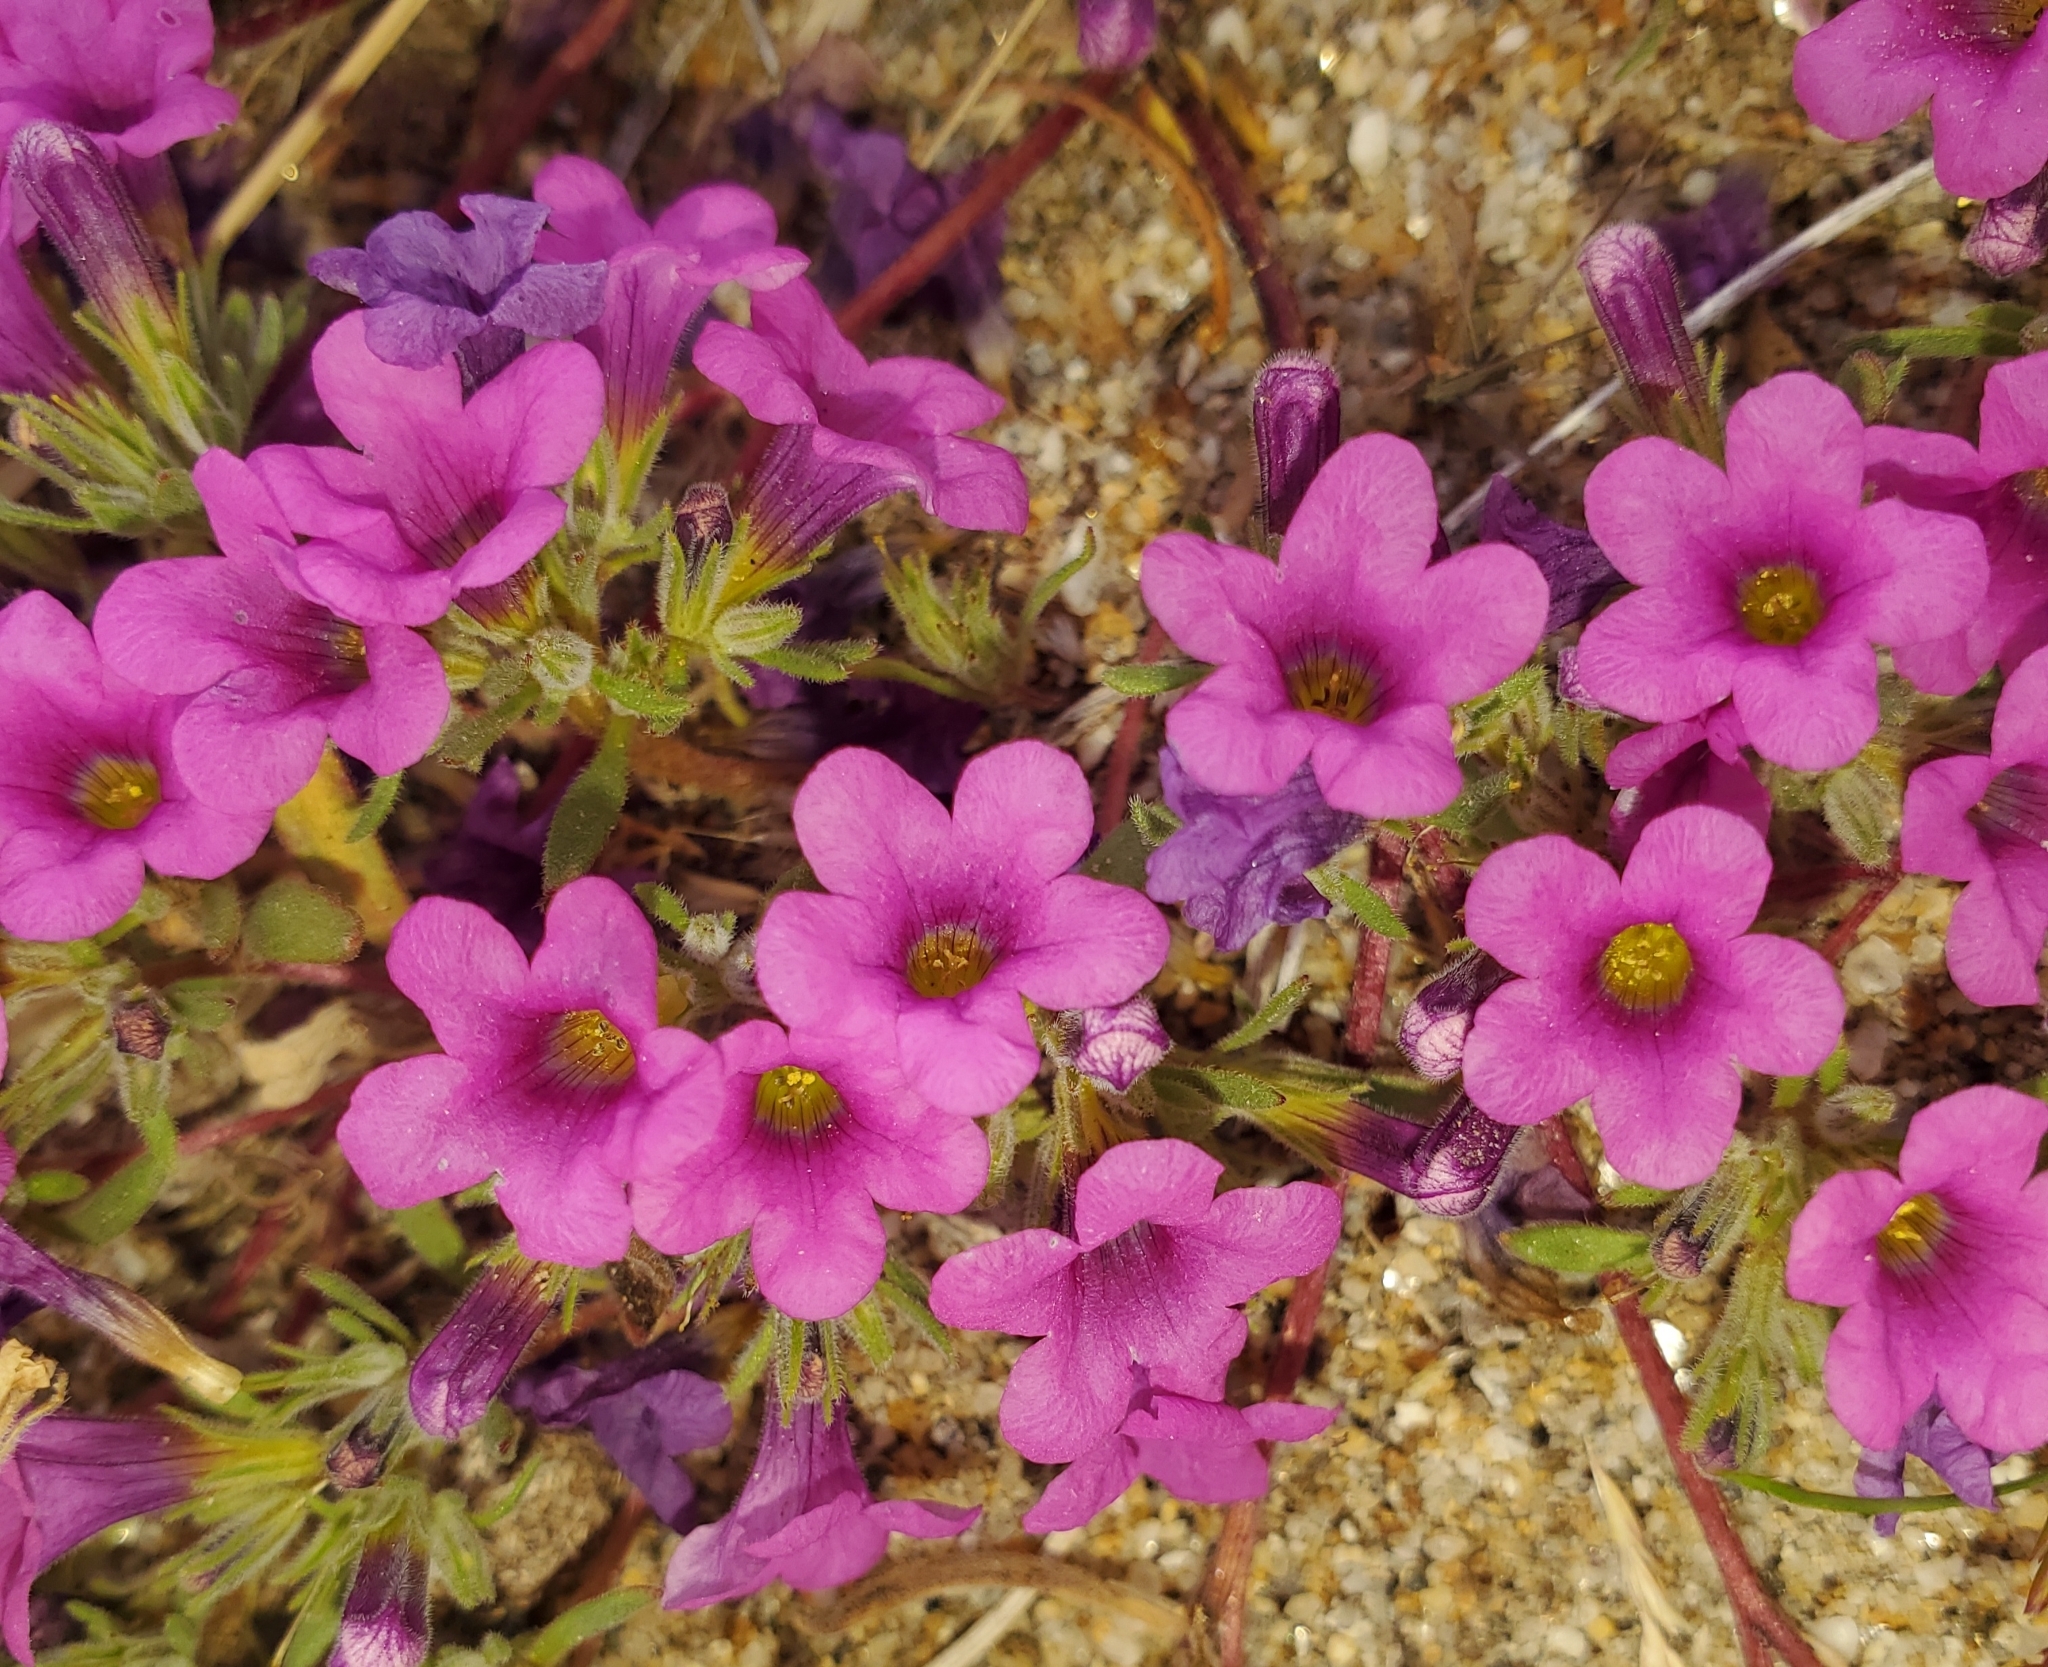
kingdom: Plantae
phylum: Tracheophyta
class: Magnoliopsida
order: Boraginales
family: Namaceae
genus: Nama
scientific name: Nama demissa
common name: Leafy nama
